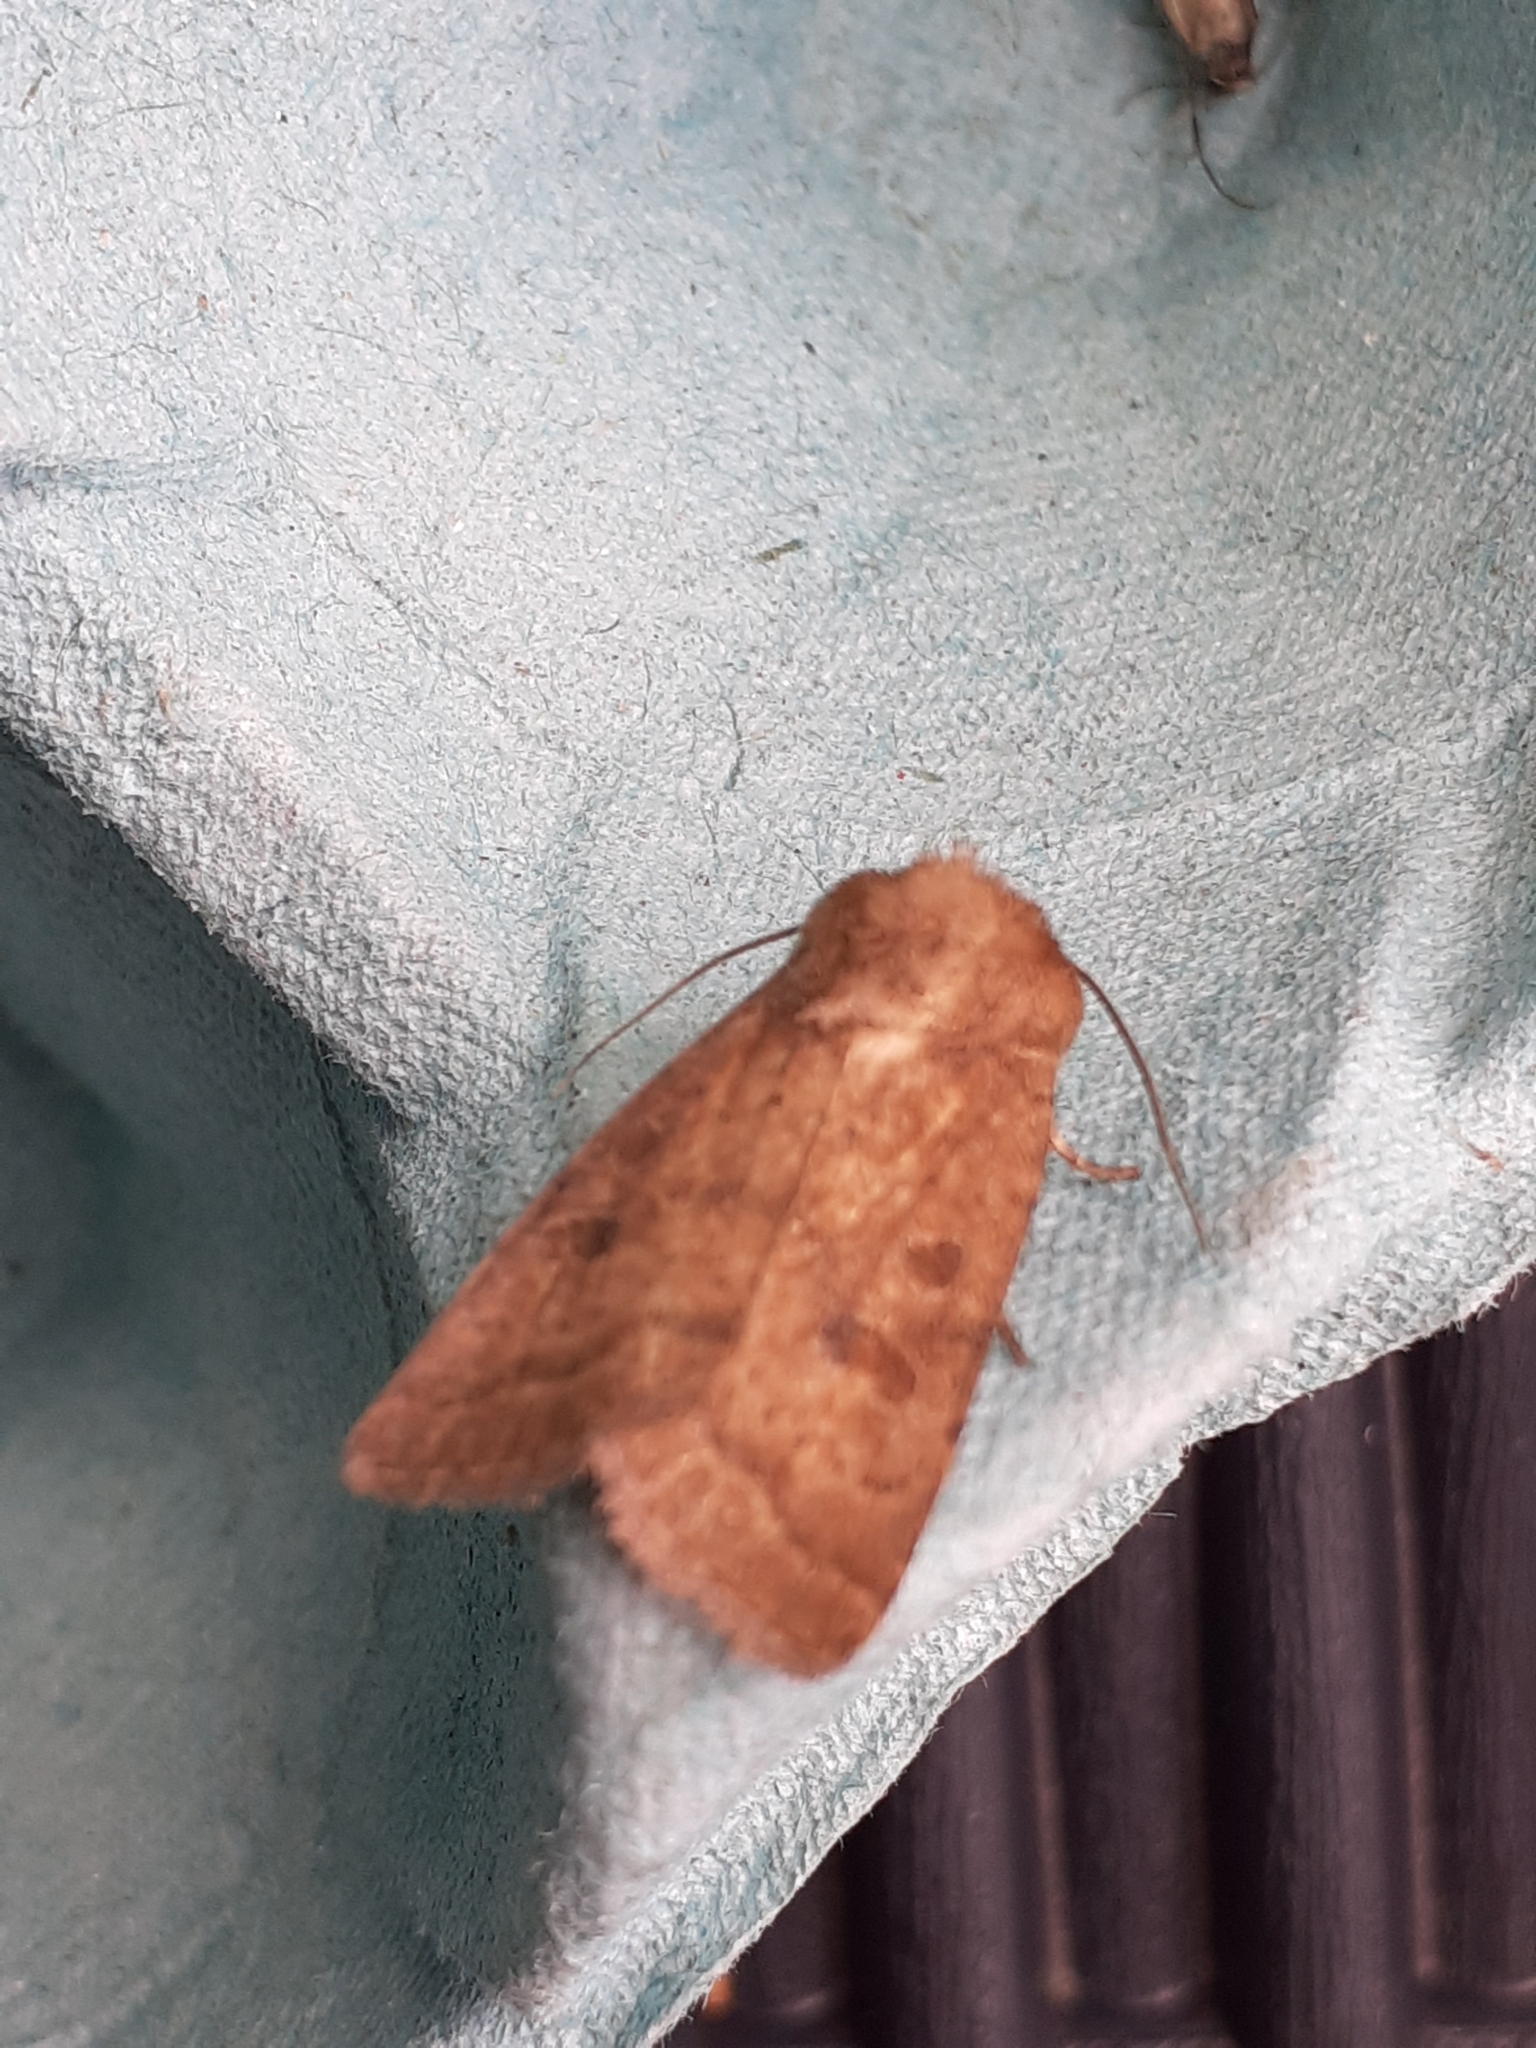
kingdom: Animalia
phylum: Arthropoda
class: Insecta
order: Lepidoptera
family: Noctuidae
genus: Hoplodrina
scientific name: Hoplodrina octogenaria
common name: Uncertain
